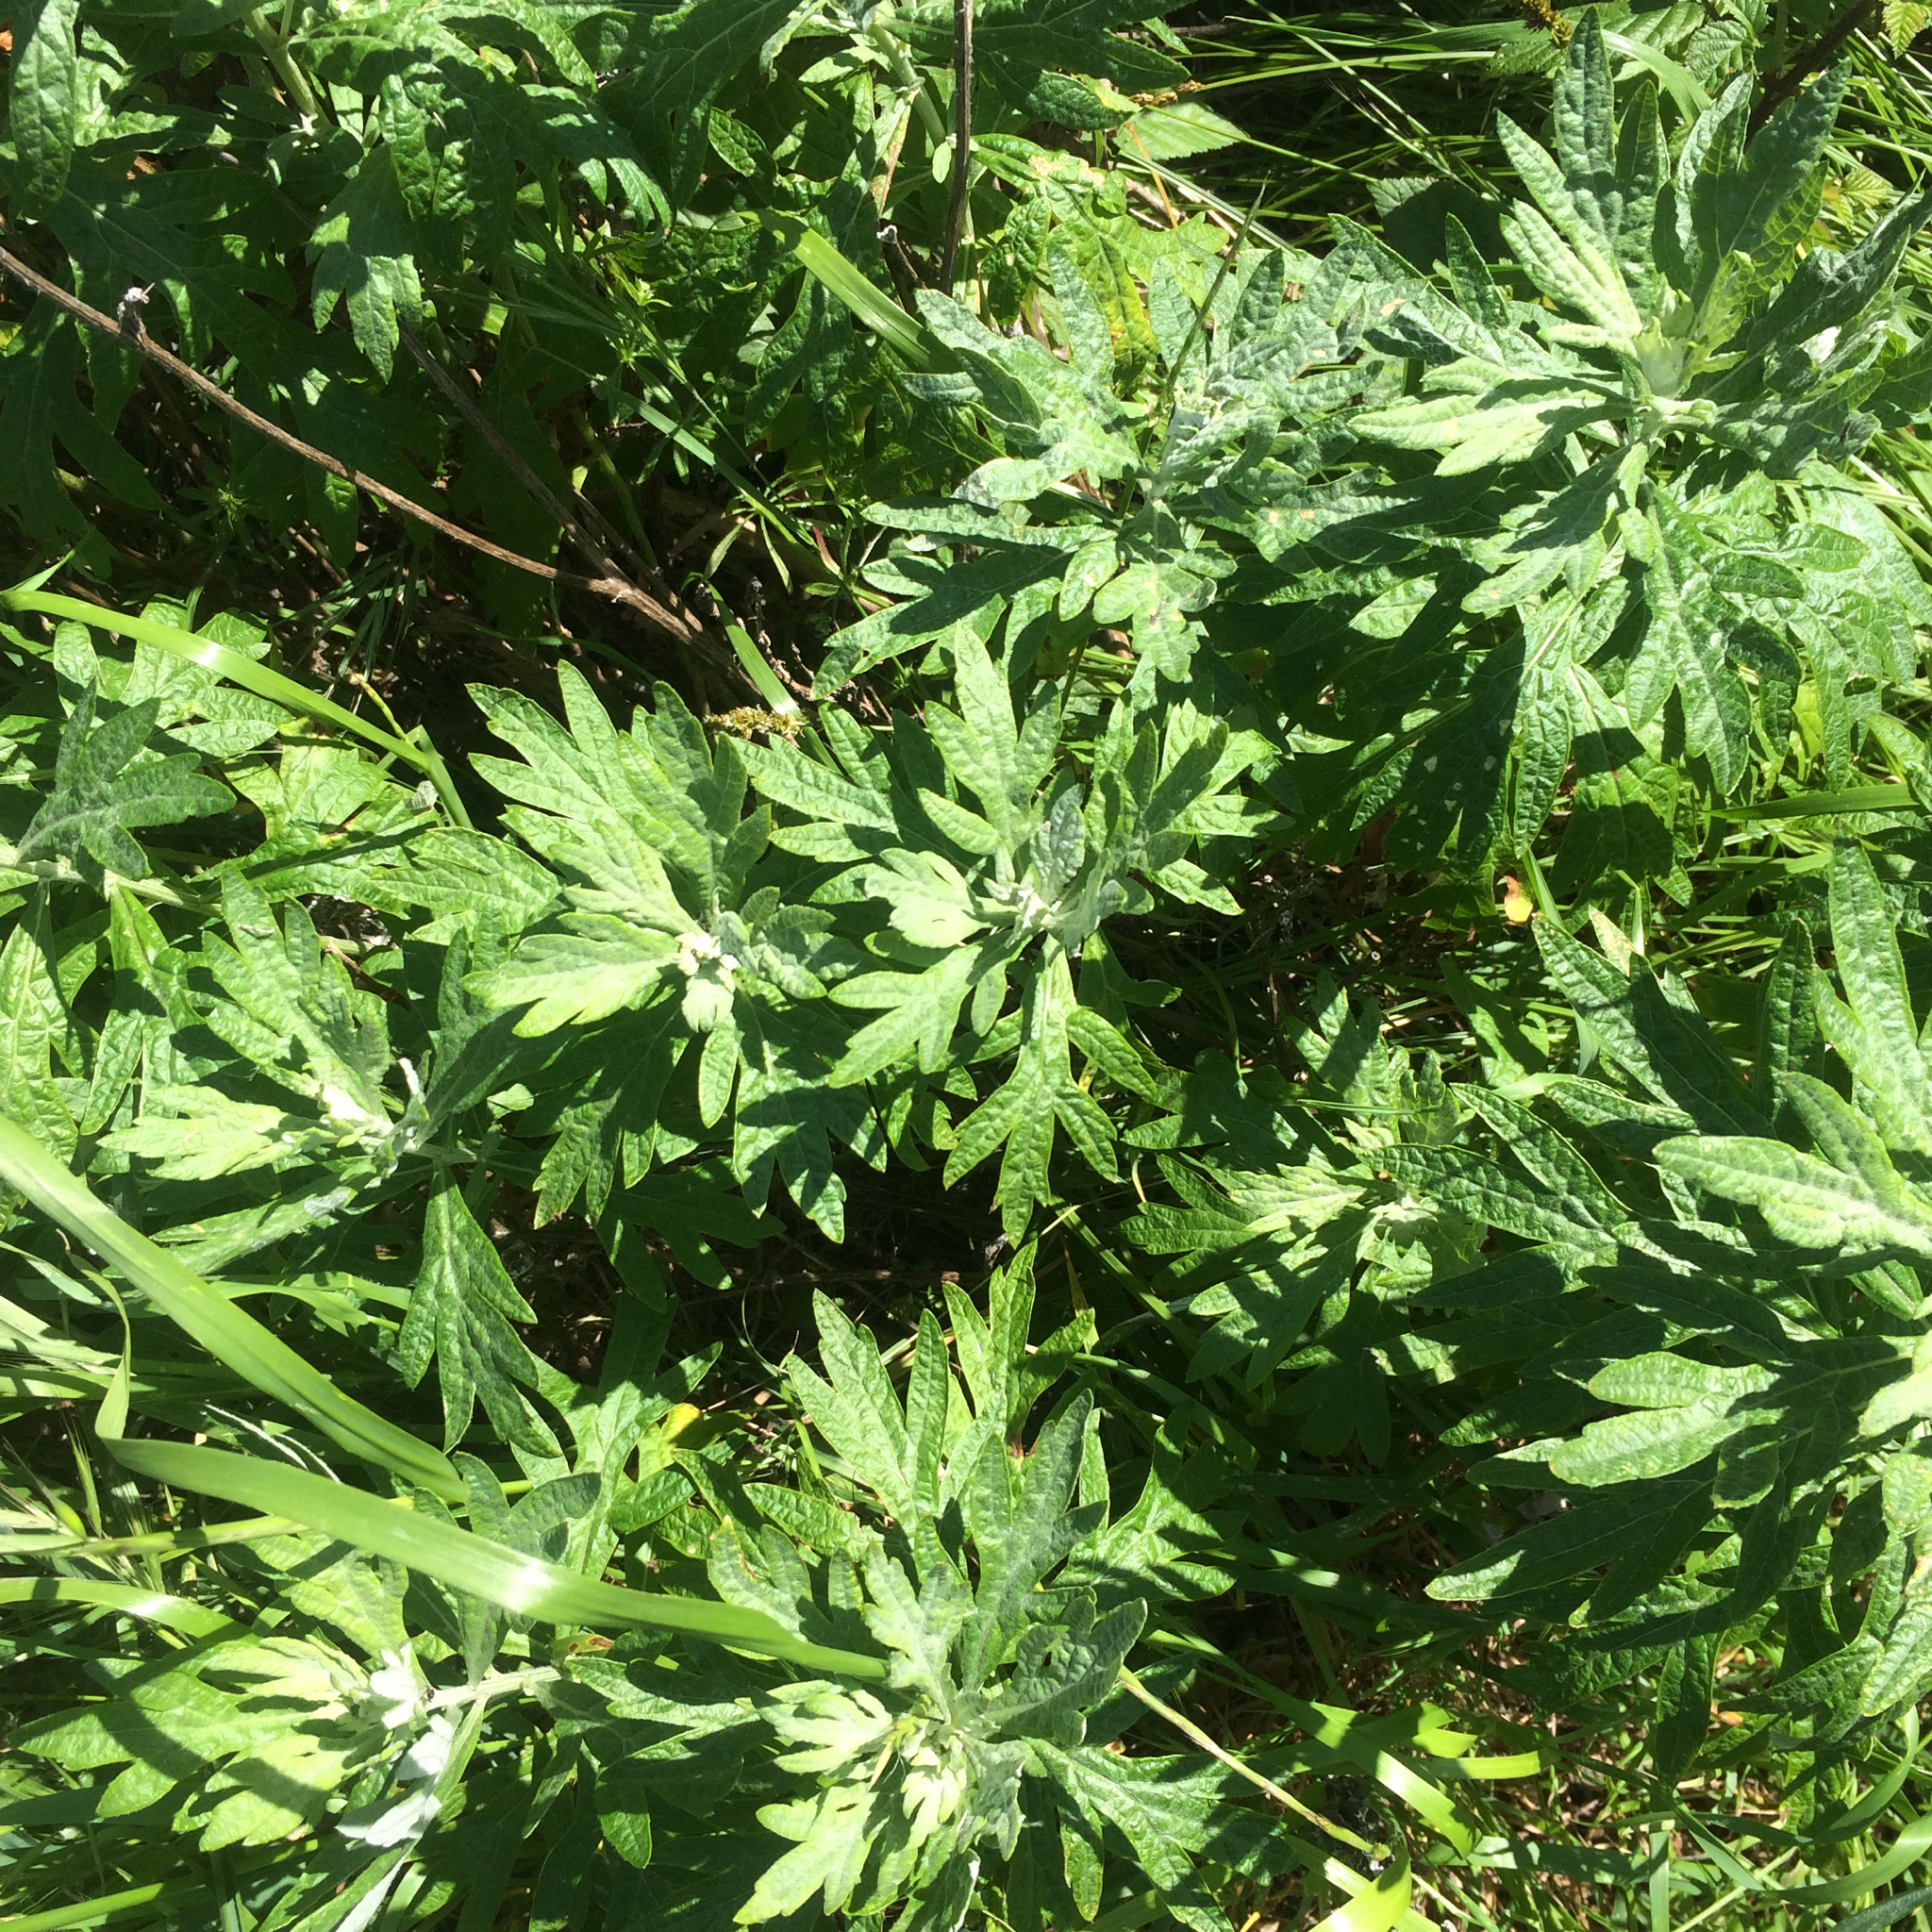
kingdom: Plantae
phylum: Tracheophyta
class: Magnoliopsida
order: Asterales
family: Asteraceae
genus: Artemisia
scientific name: Artemisia douglasiana
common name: Northwest mugwort
